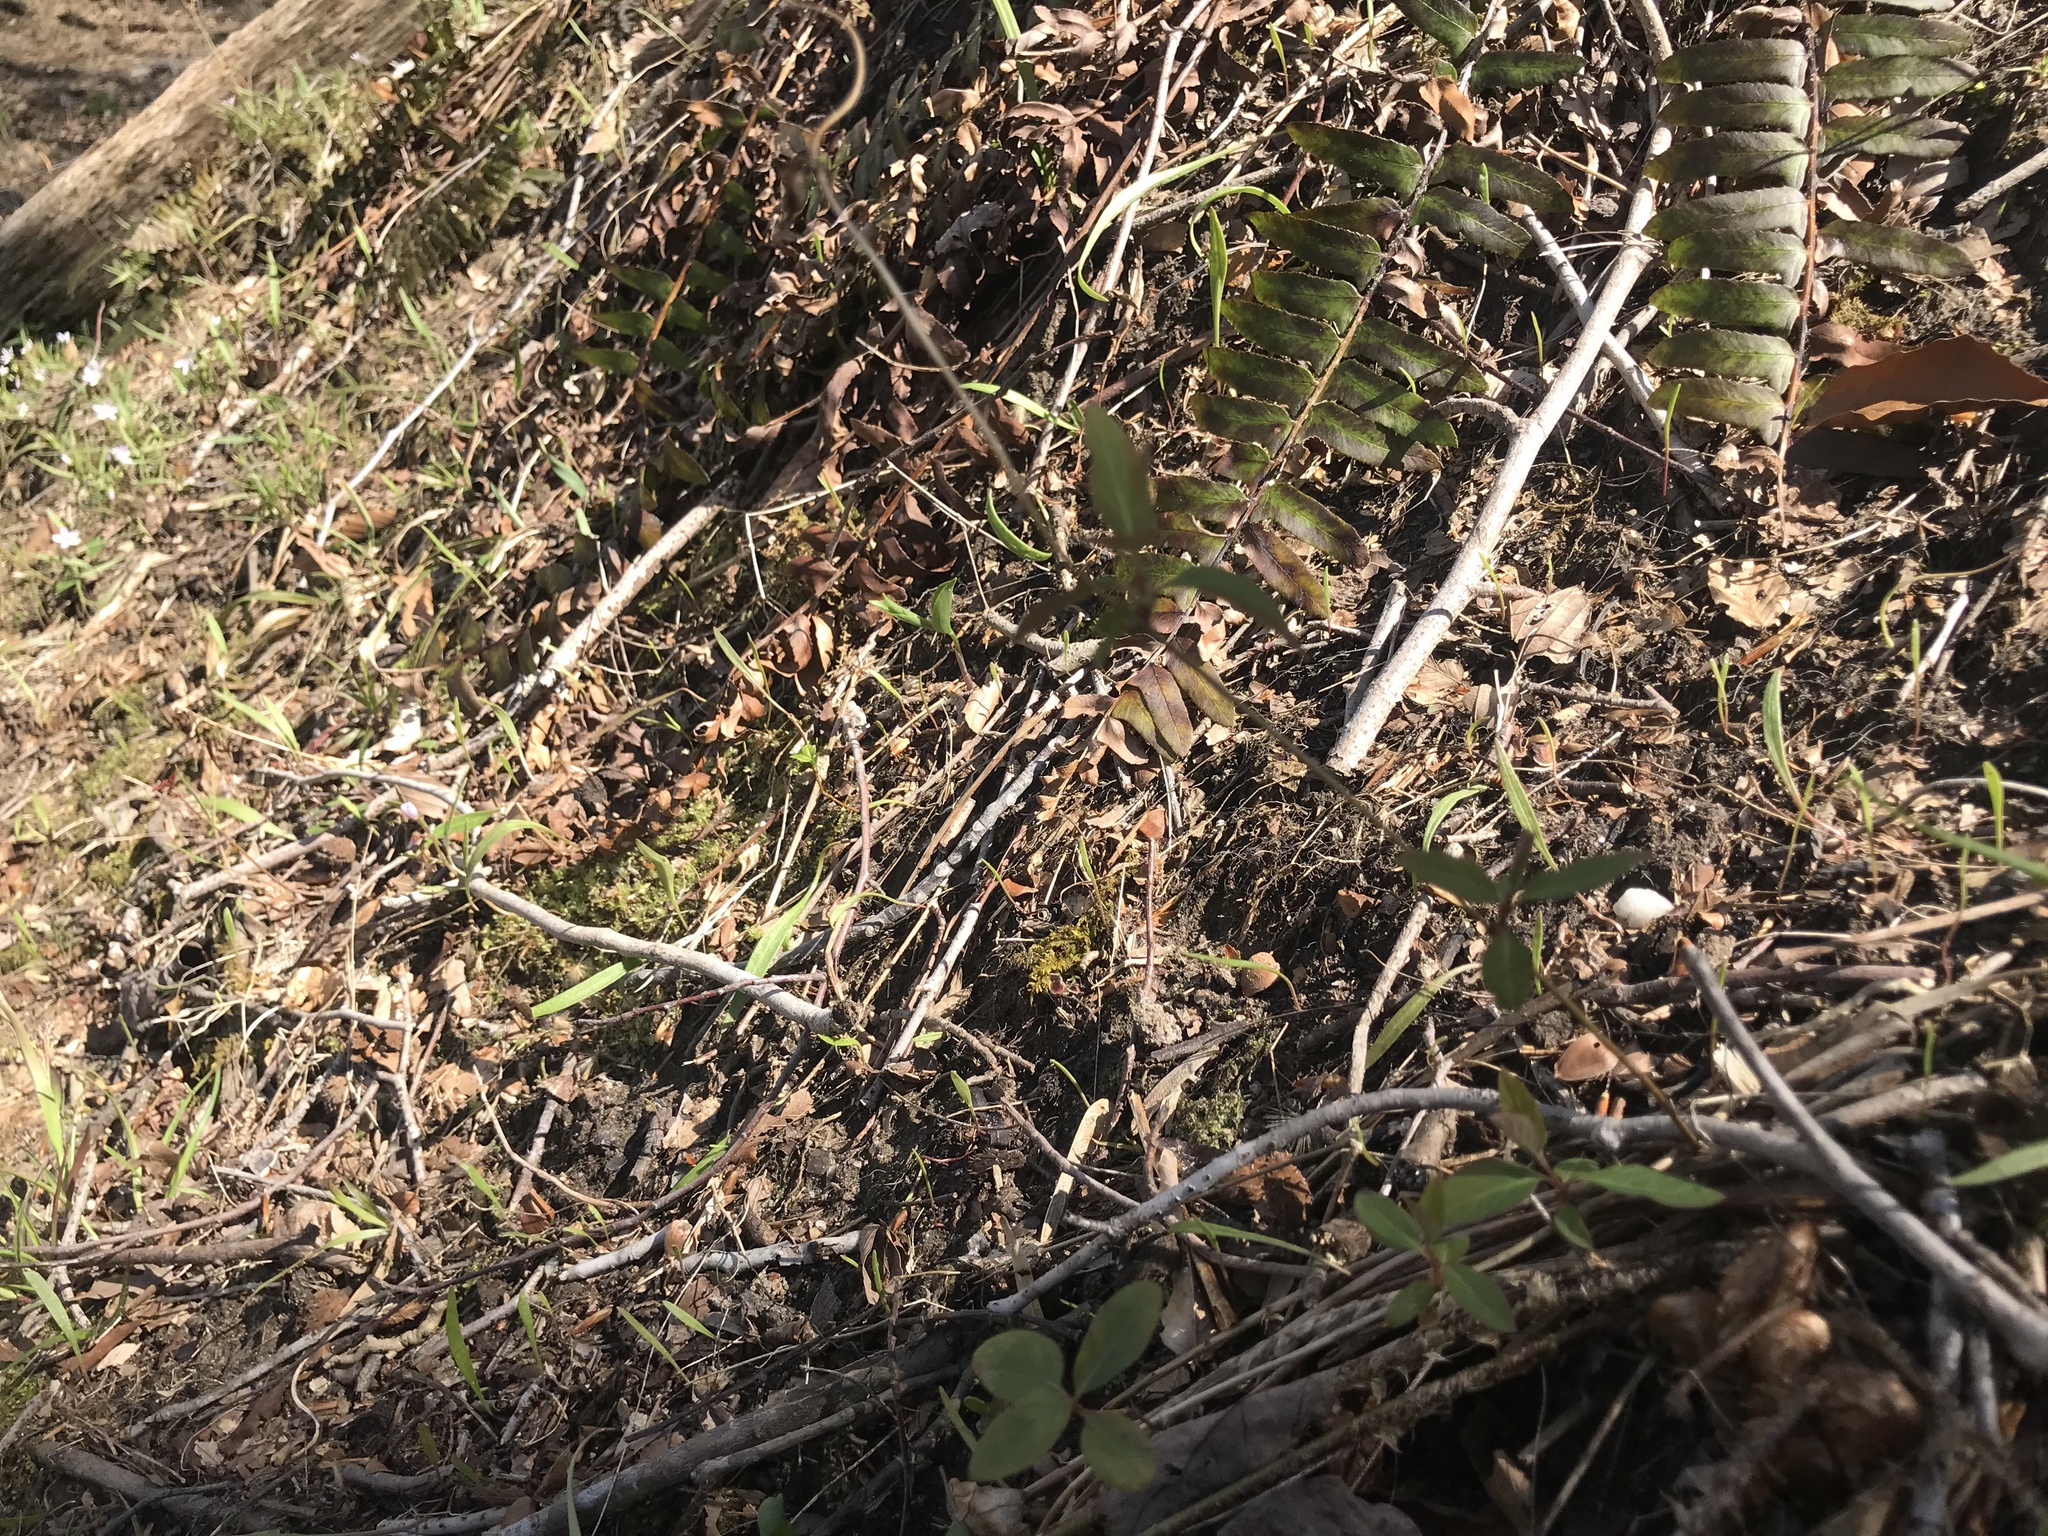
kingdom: Plantae
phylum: Tracheophyta
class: Polypodiopsida
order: Polypodiales
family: Dryopteridaceae
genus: Polystichum
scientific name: Polystichum acrostichoides
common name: Christmas fern
